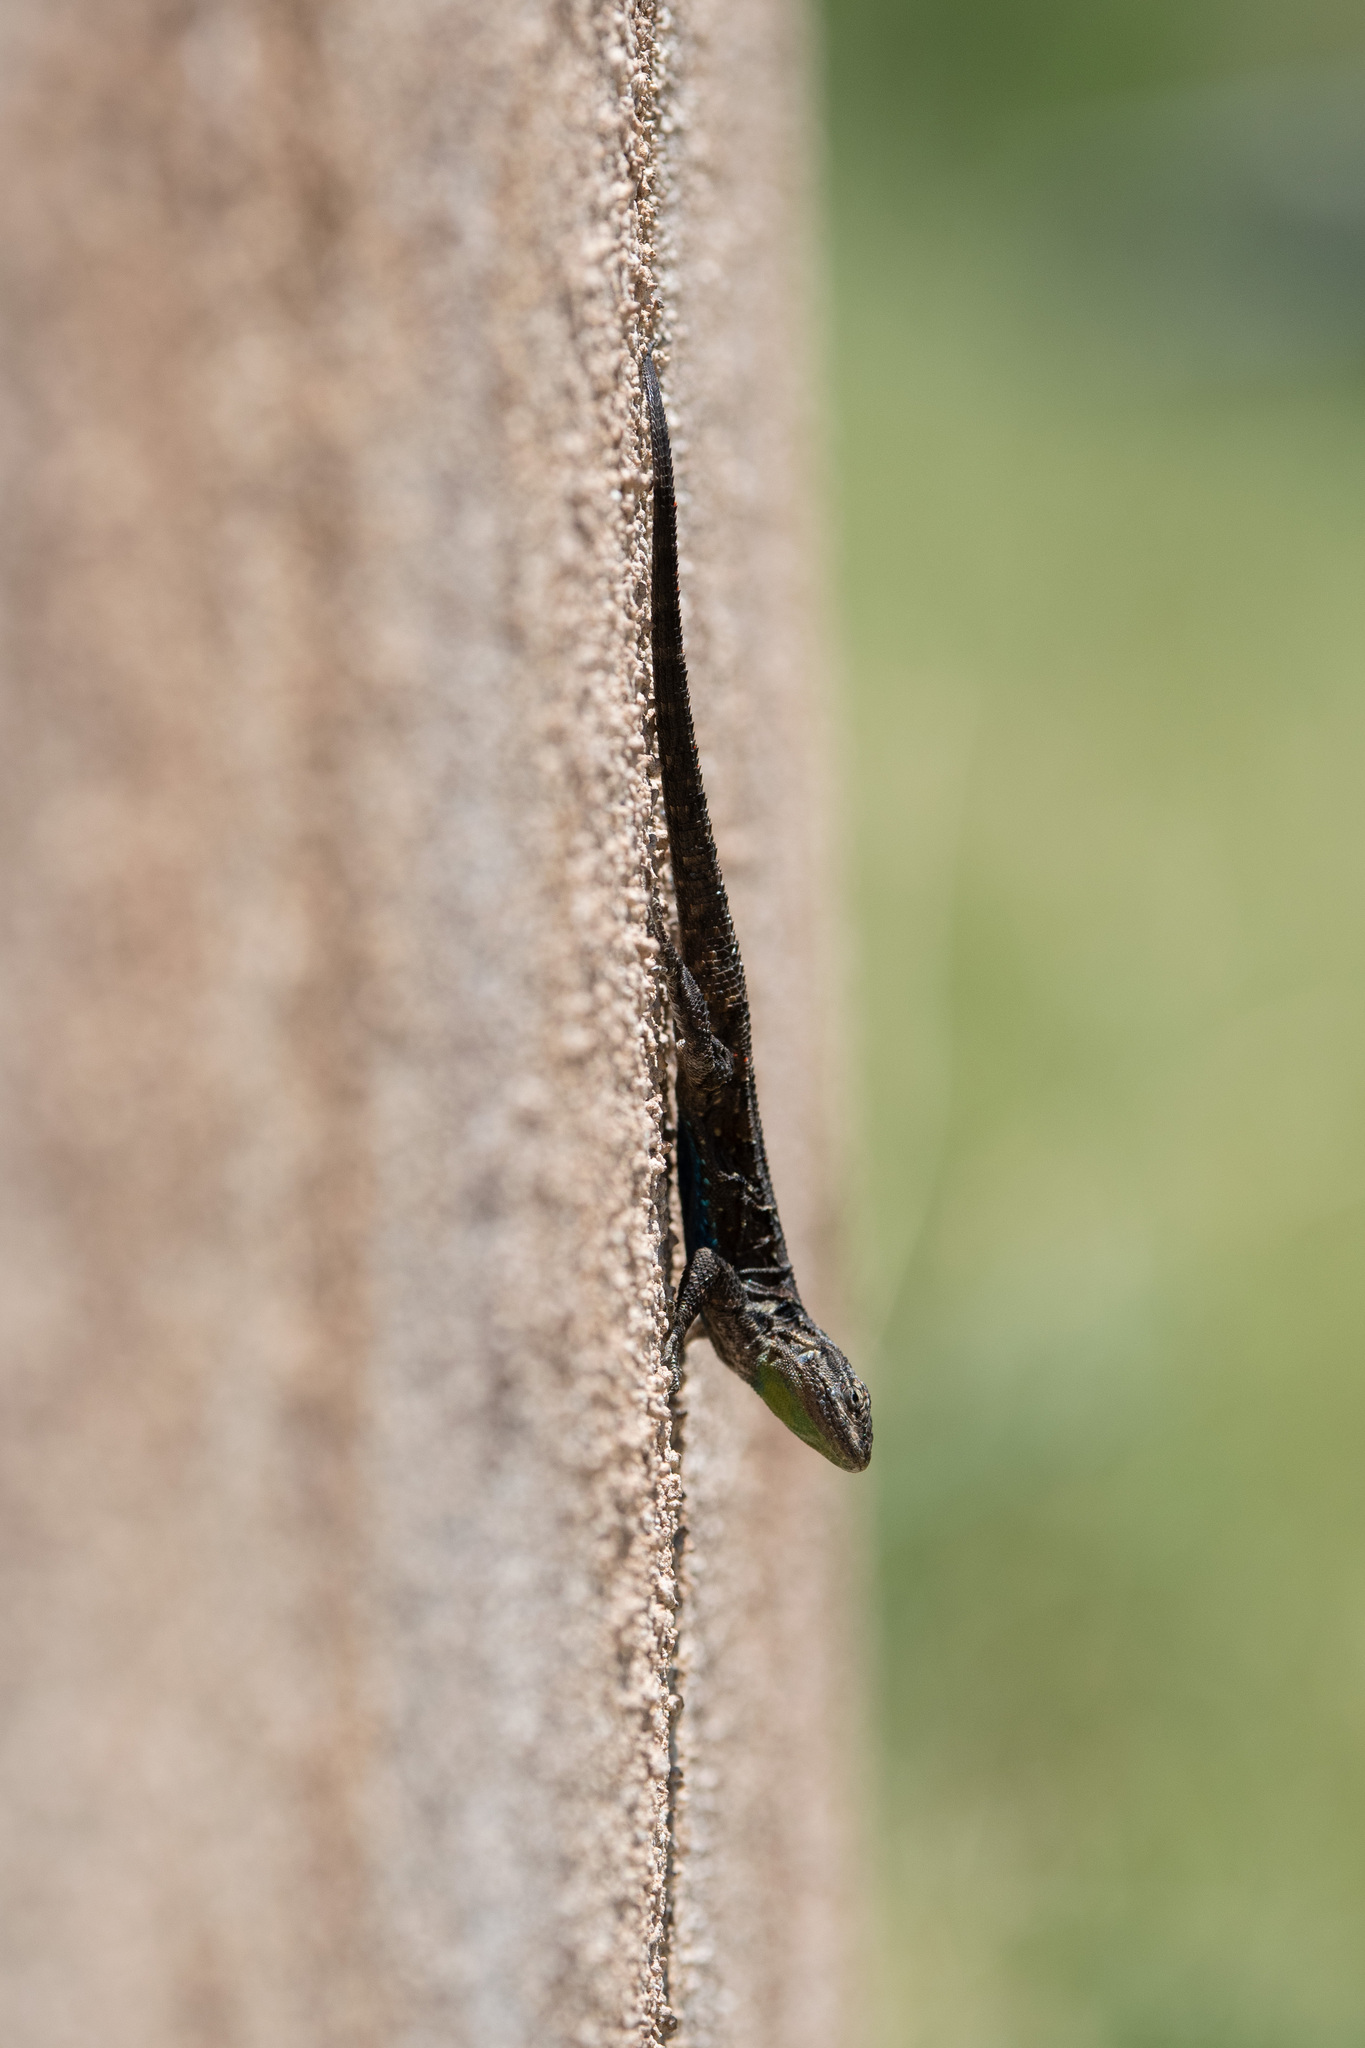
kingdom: Animalia
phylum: Chordata
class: Squamata
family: Phrynosomatidae
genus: Urosaurus
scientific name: Urosaurus ornatus
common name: Ornate tree lizard
